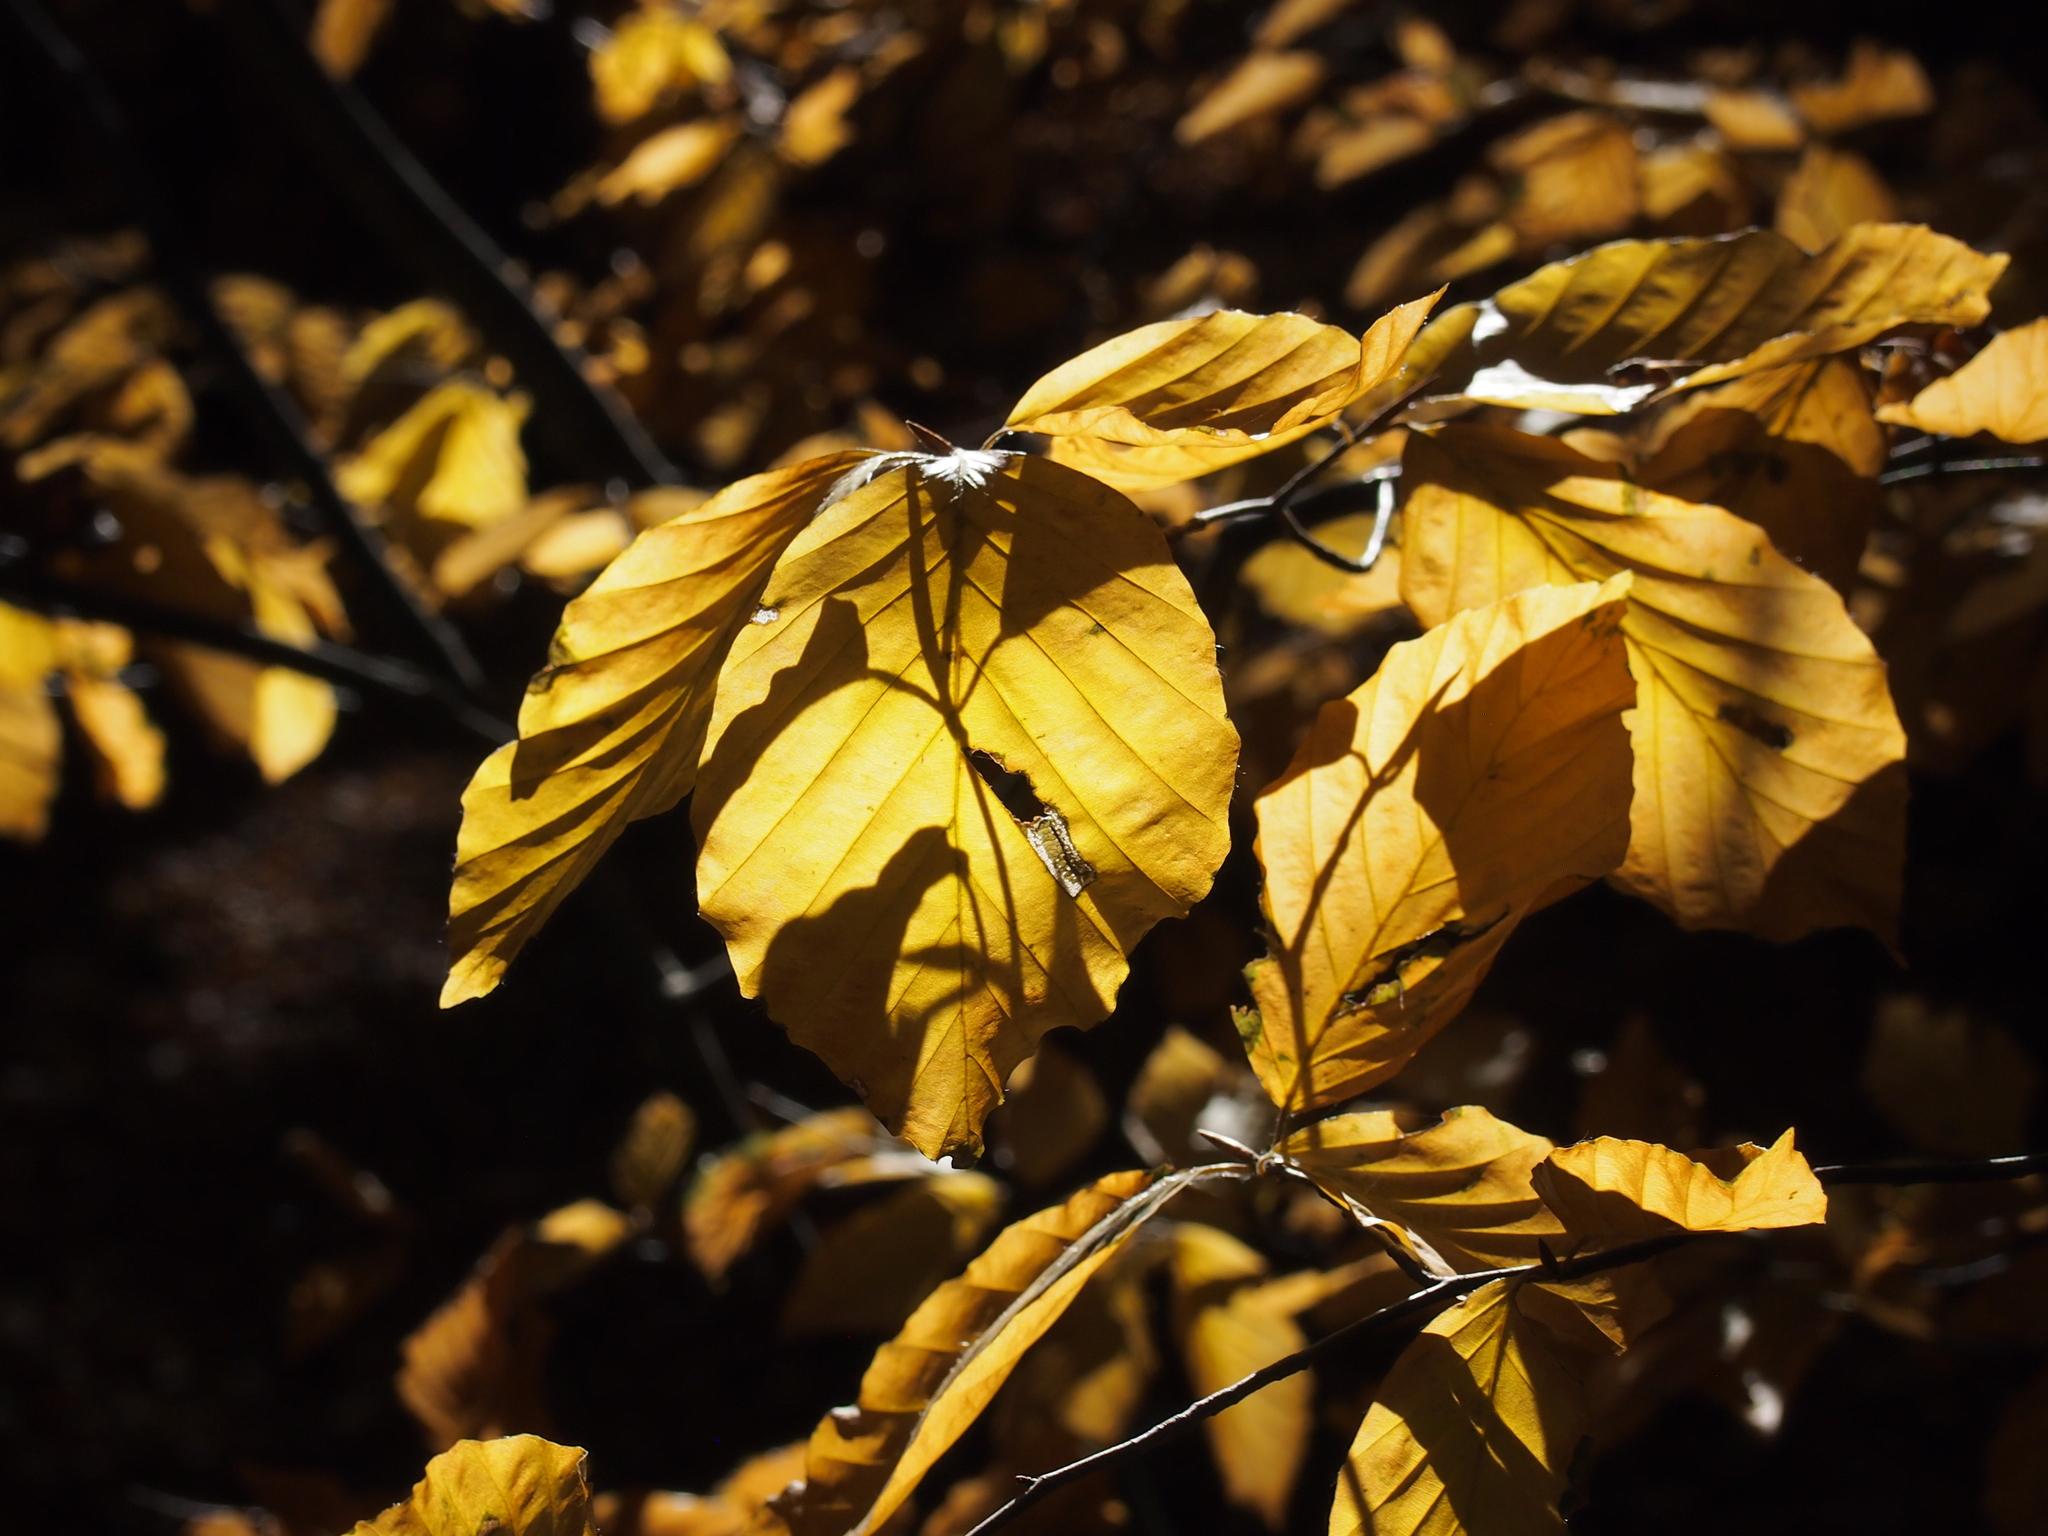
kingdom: Plantae
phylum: Tracheophyta
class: Magnoliopsida
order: Fagales
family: Fagaceae
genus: Fagus
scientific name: Fagus sylvatica
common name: Beech
